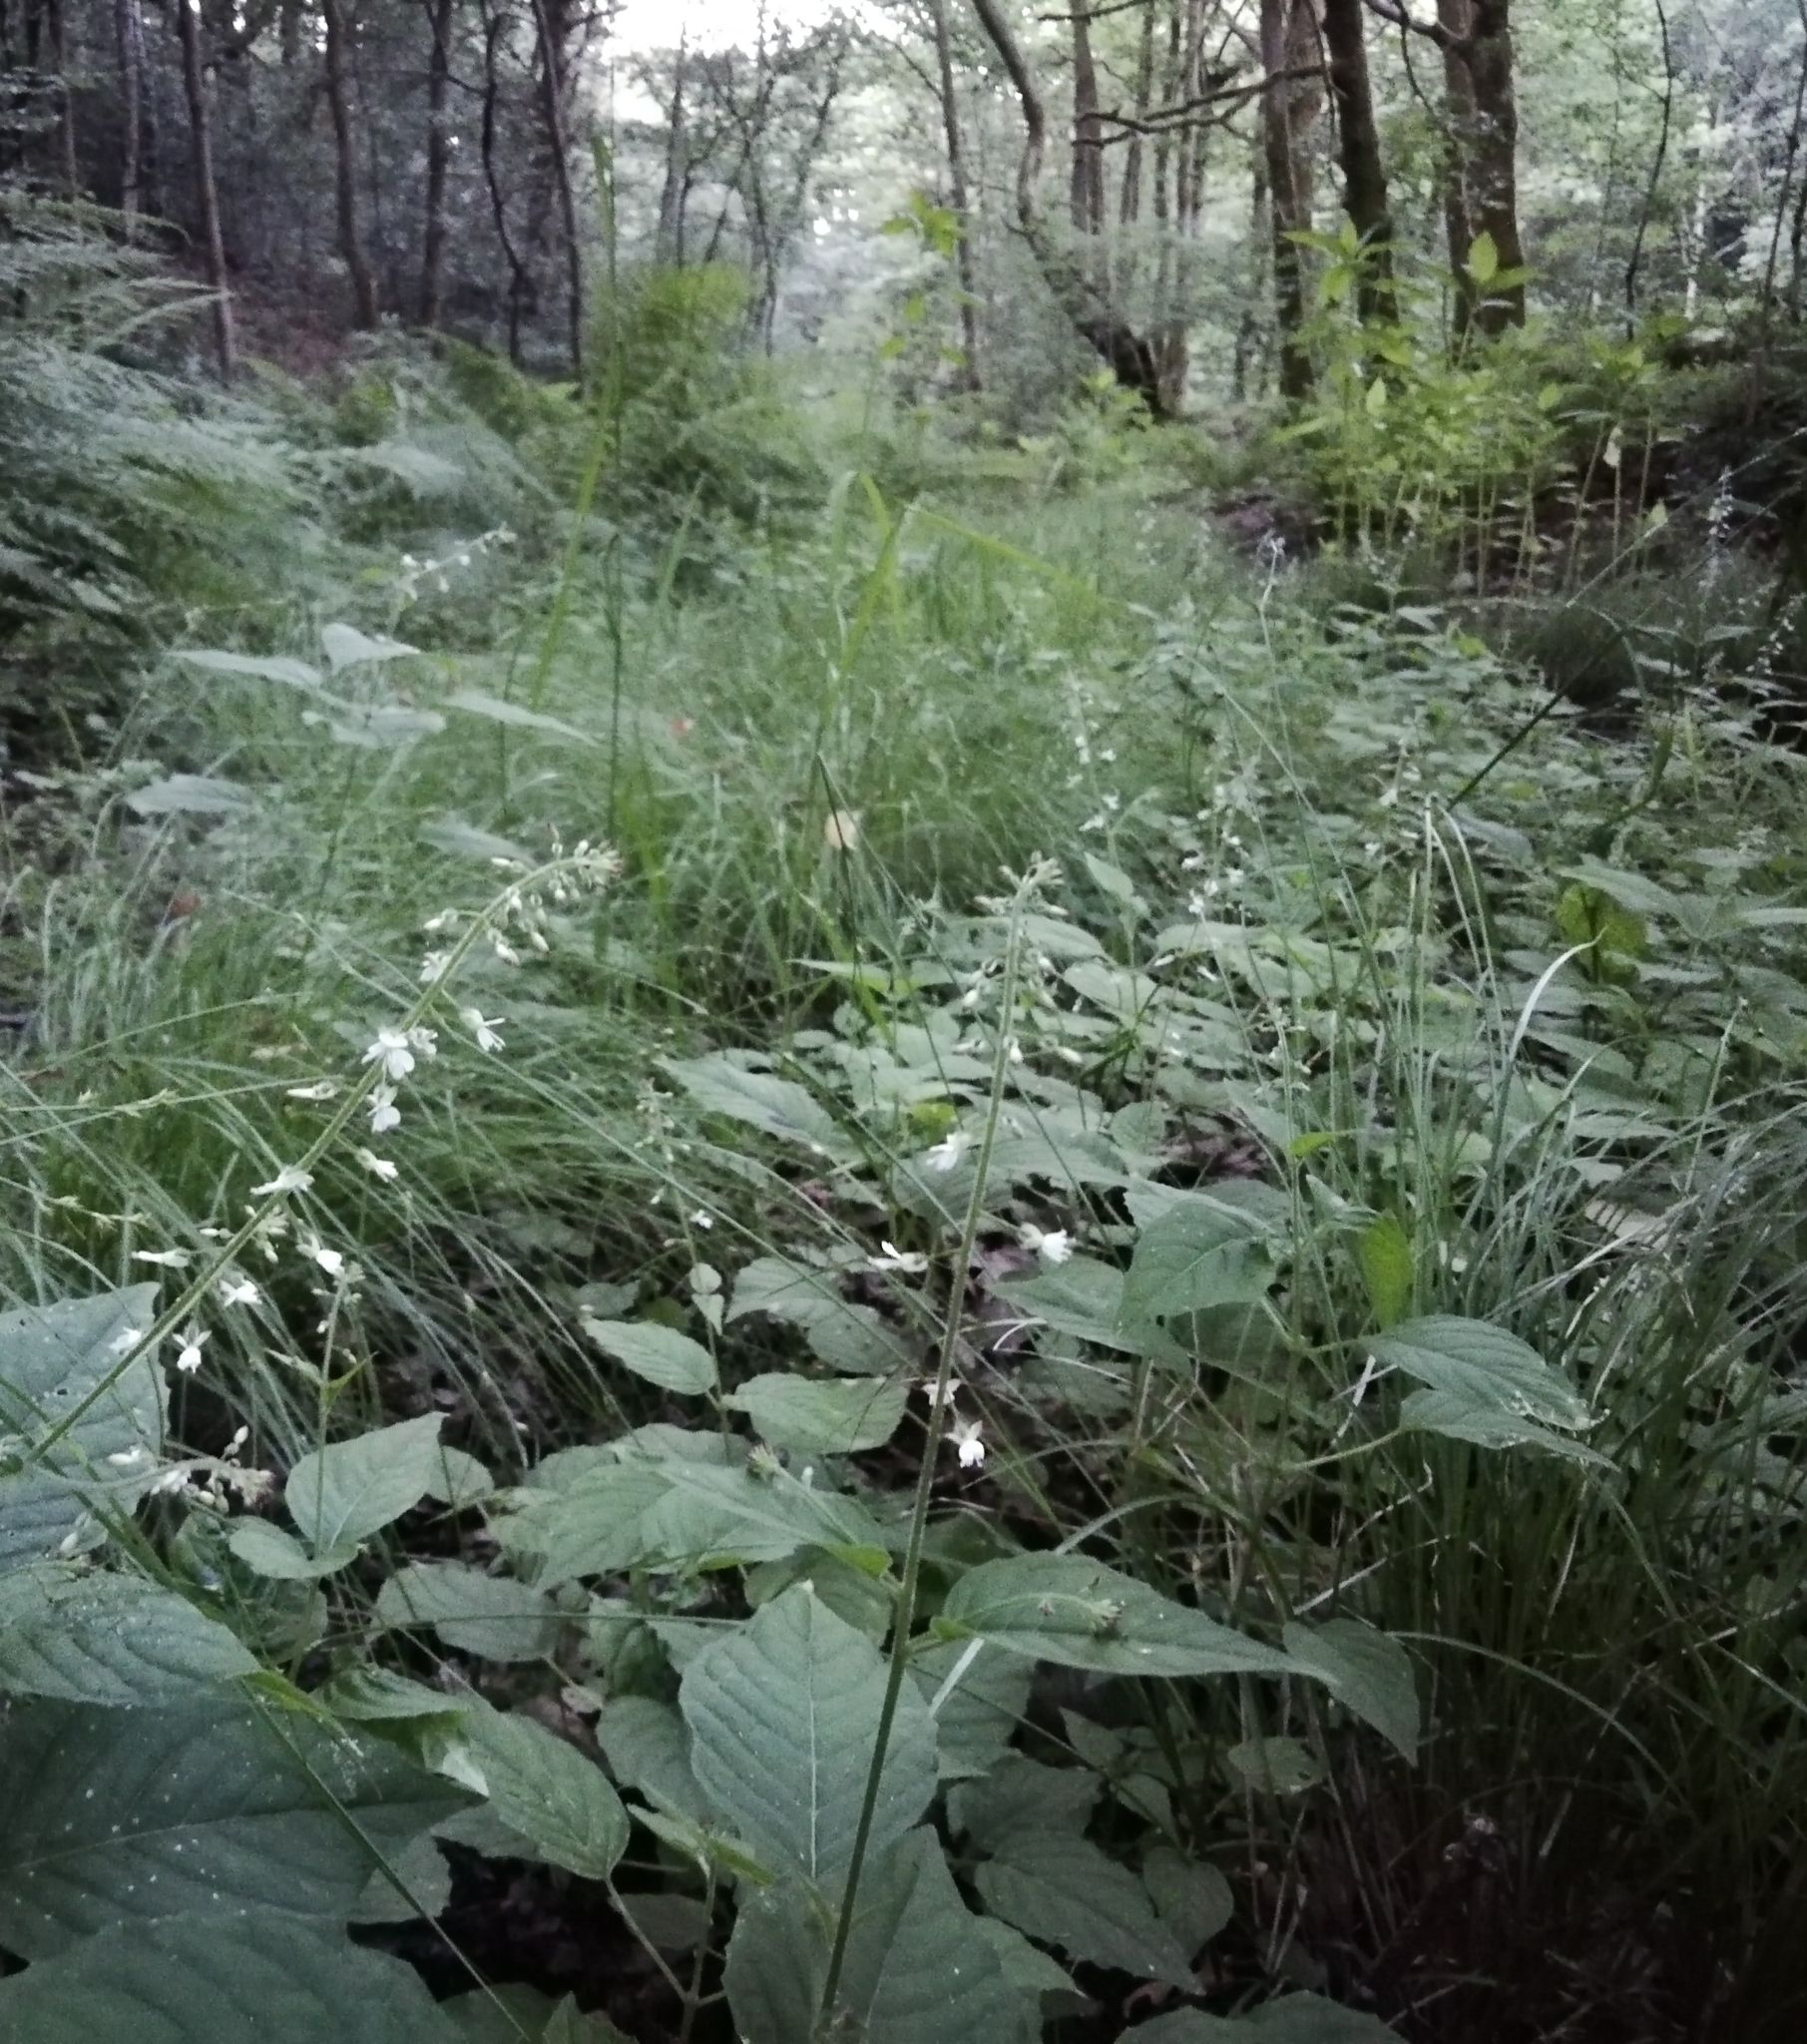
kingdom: Plantae
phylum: Tracheophyta
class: Magnoliopsida
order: Myrtales
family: Onagraceae
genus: Circaea
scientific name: Circaea lutetiana
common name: Enchanter's-nightshade
